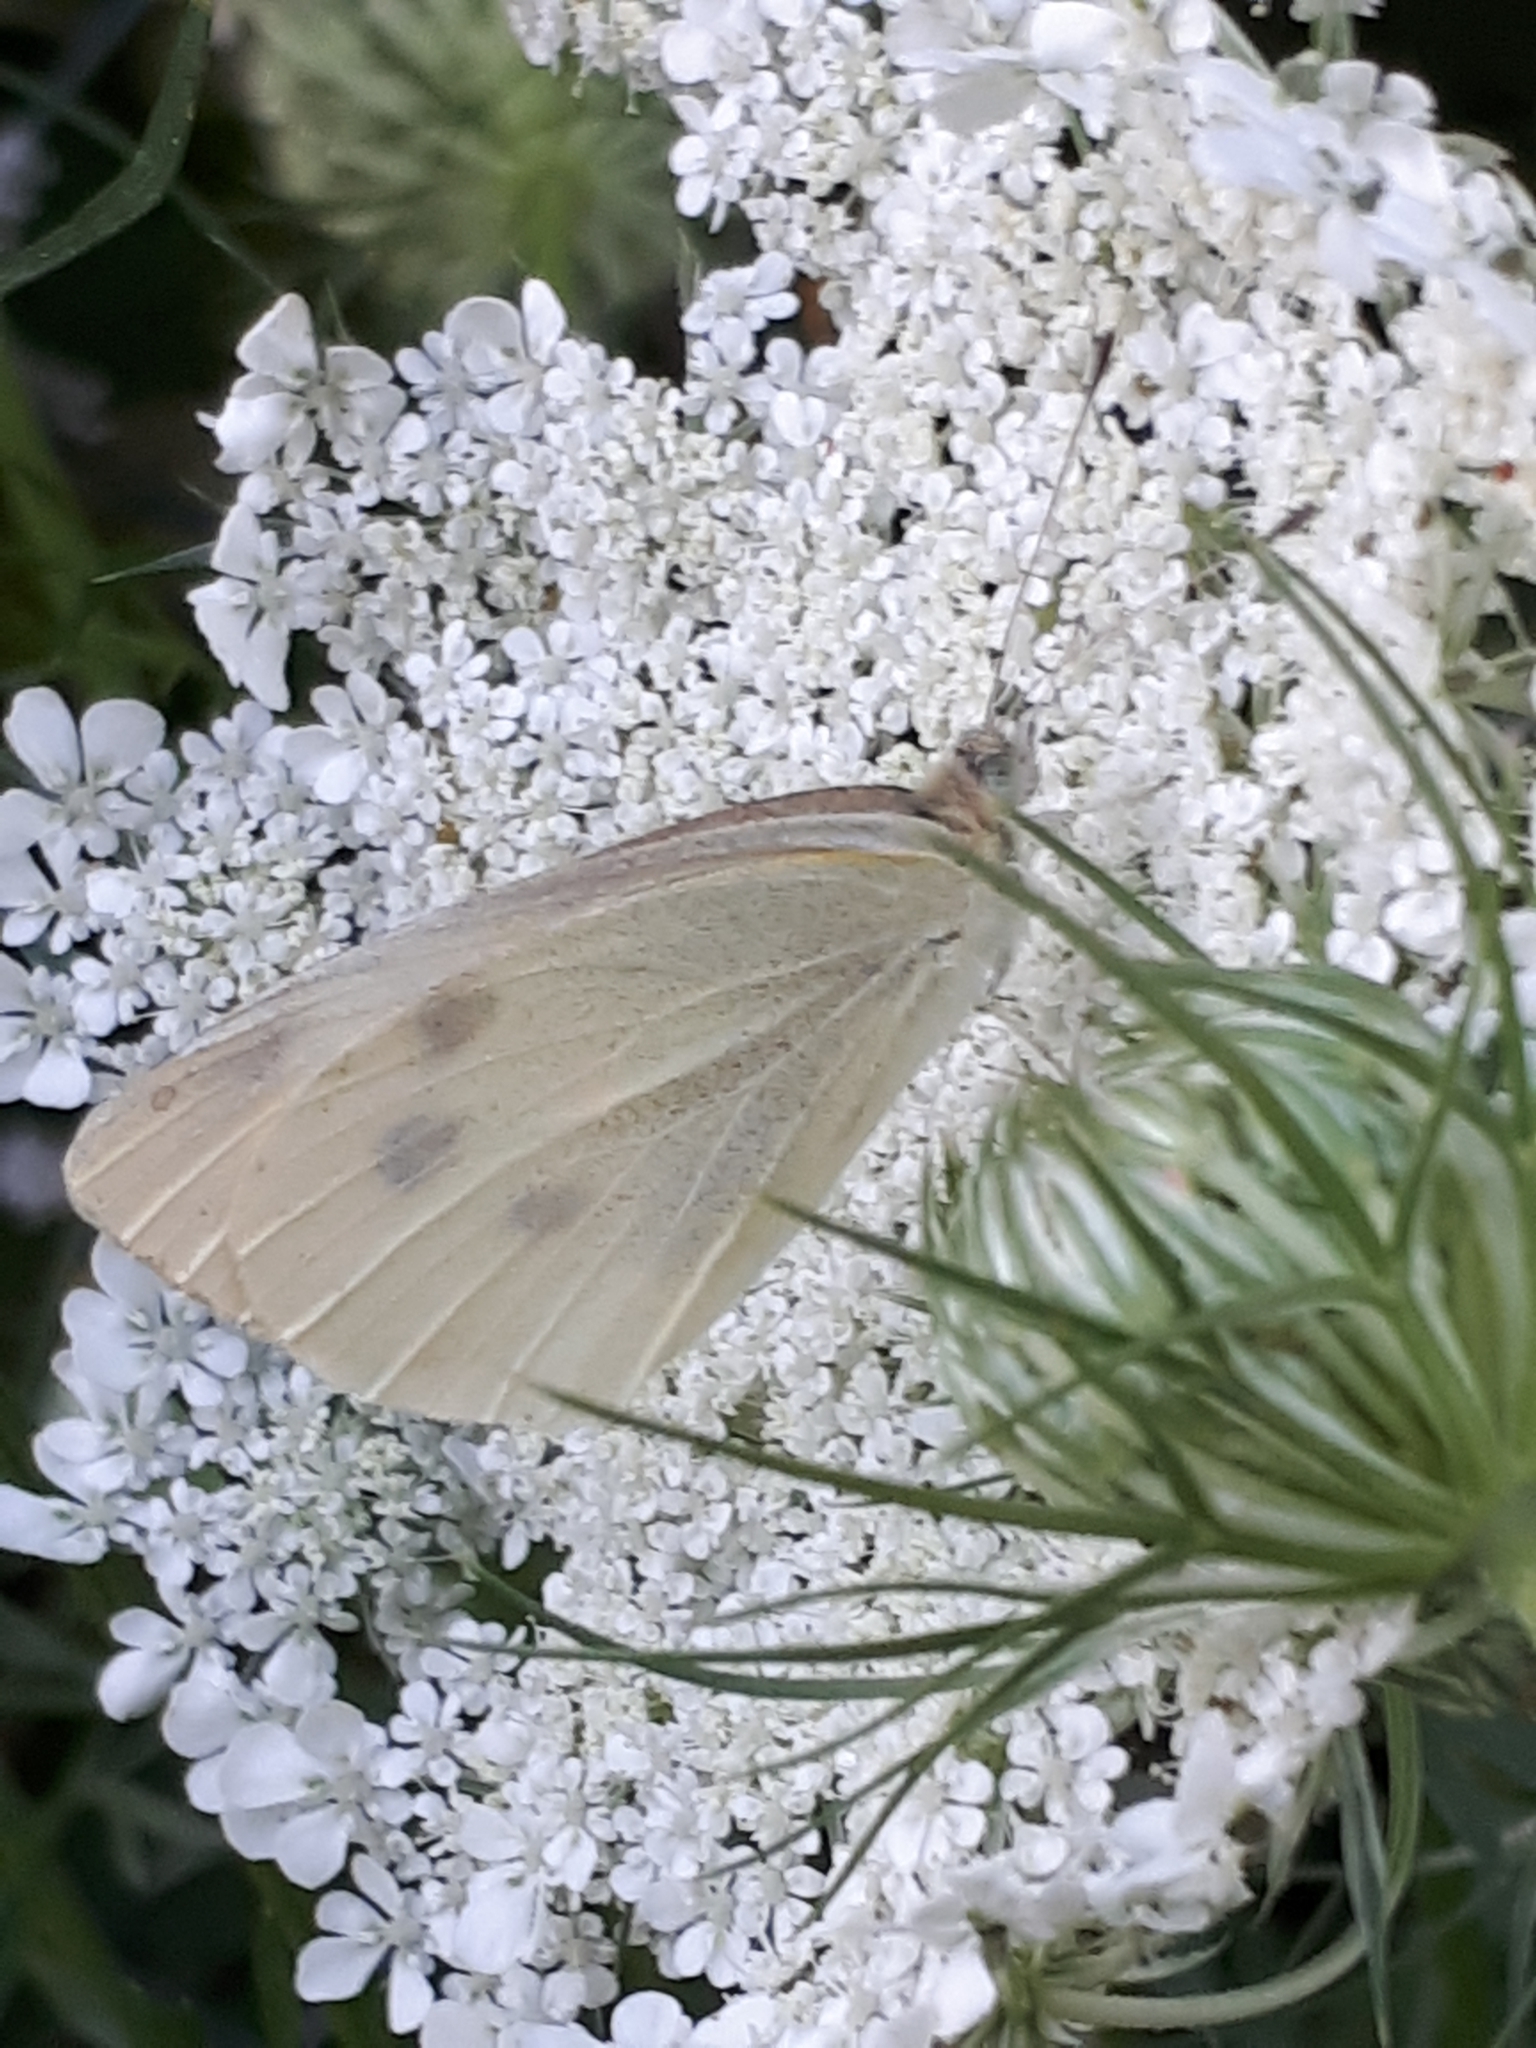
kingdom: Animalia
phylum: Arthropoda
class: Insecta
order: Lepidoptera
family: Pieridae
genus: Pieris
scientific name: Pieris brassicae
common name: Large white
